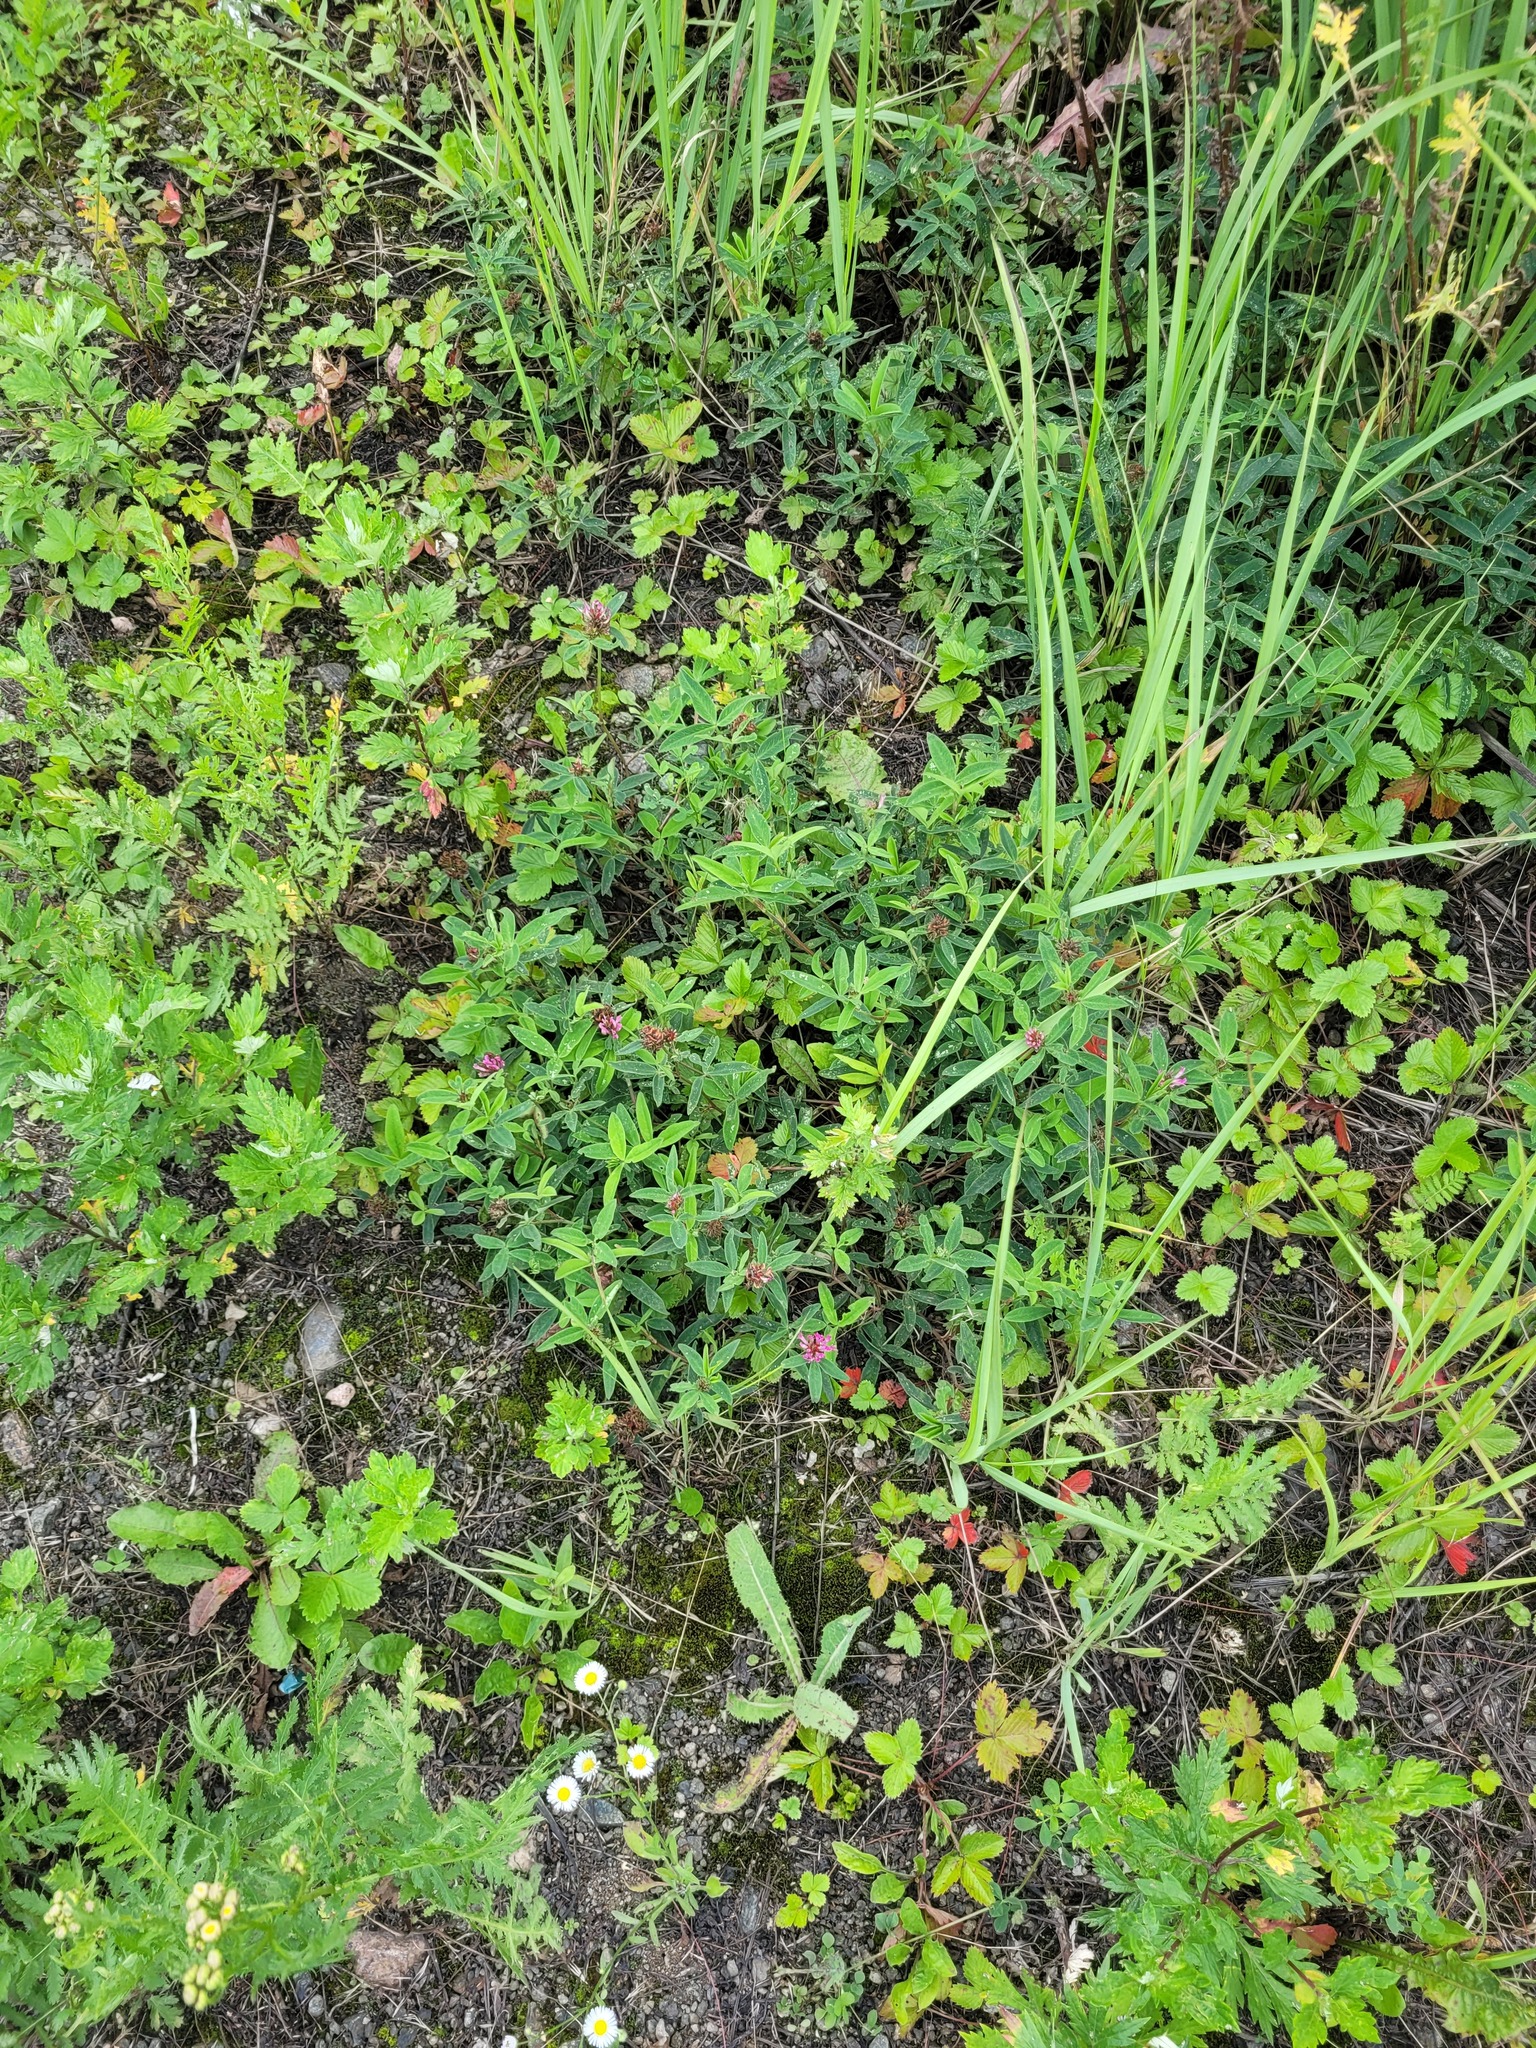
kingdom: Plantae
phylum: Tracheophyta
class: Magnoliopsida
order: Fabales
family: Fabaceae
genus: Trifolium
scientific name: Trifolium medium
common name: Zigzag clover
